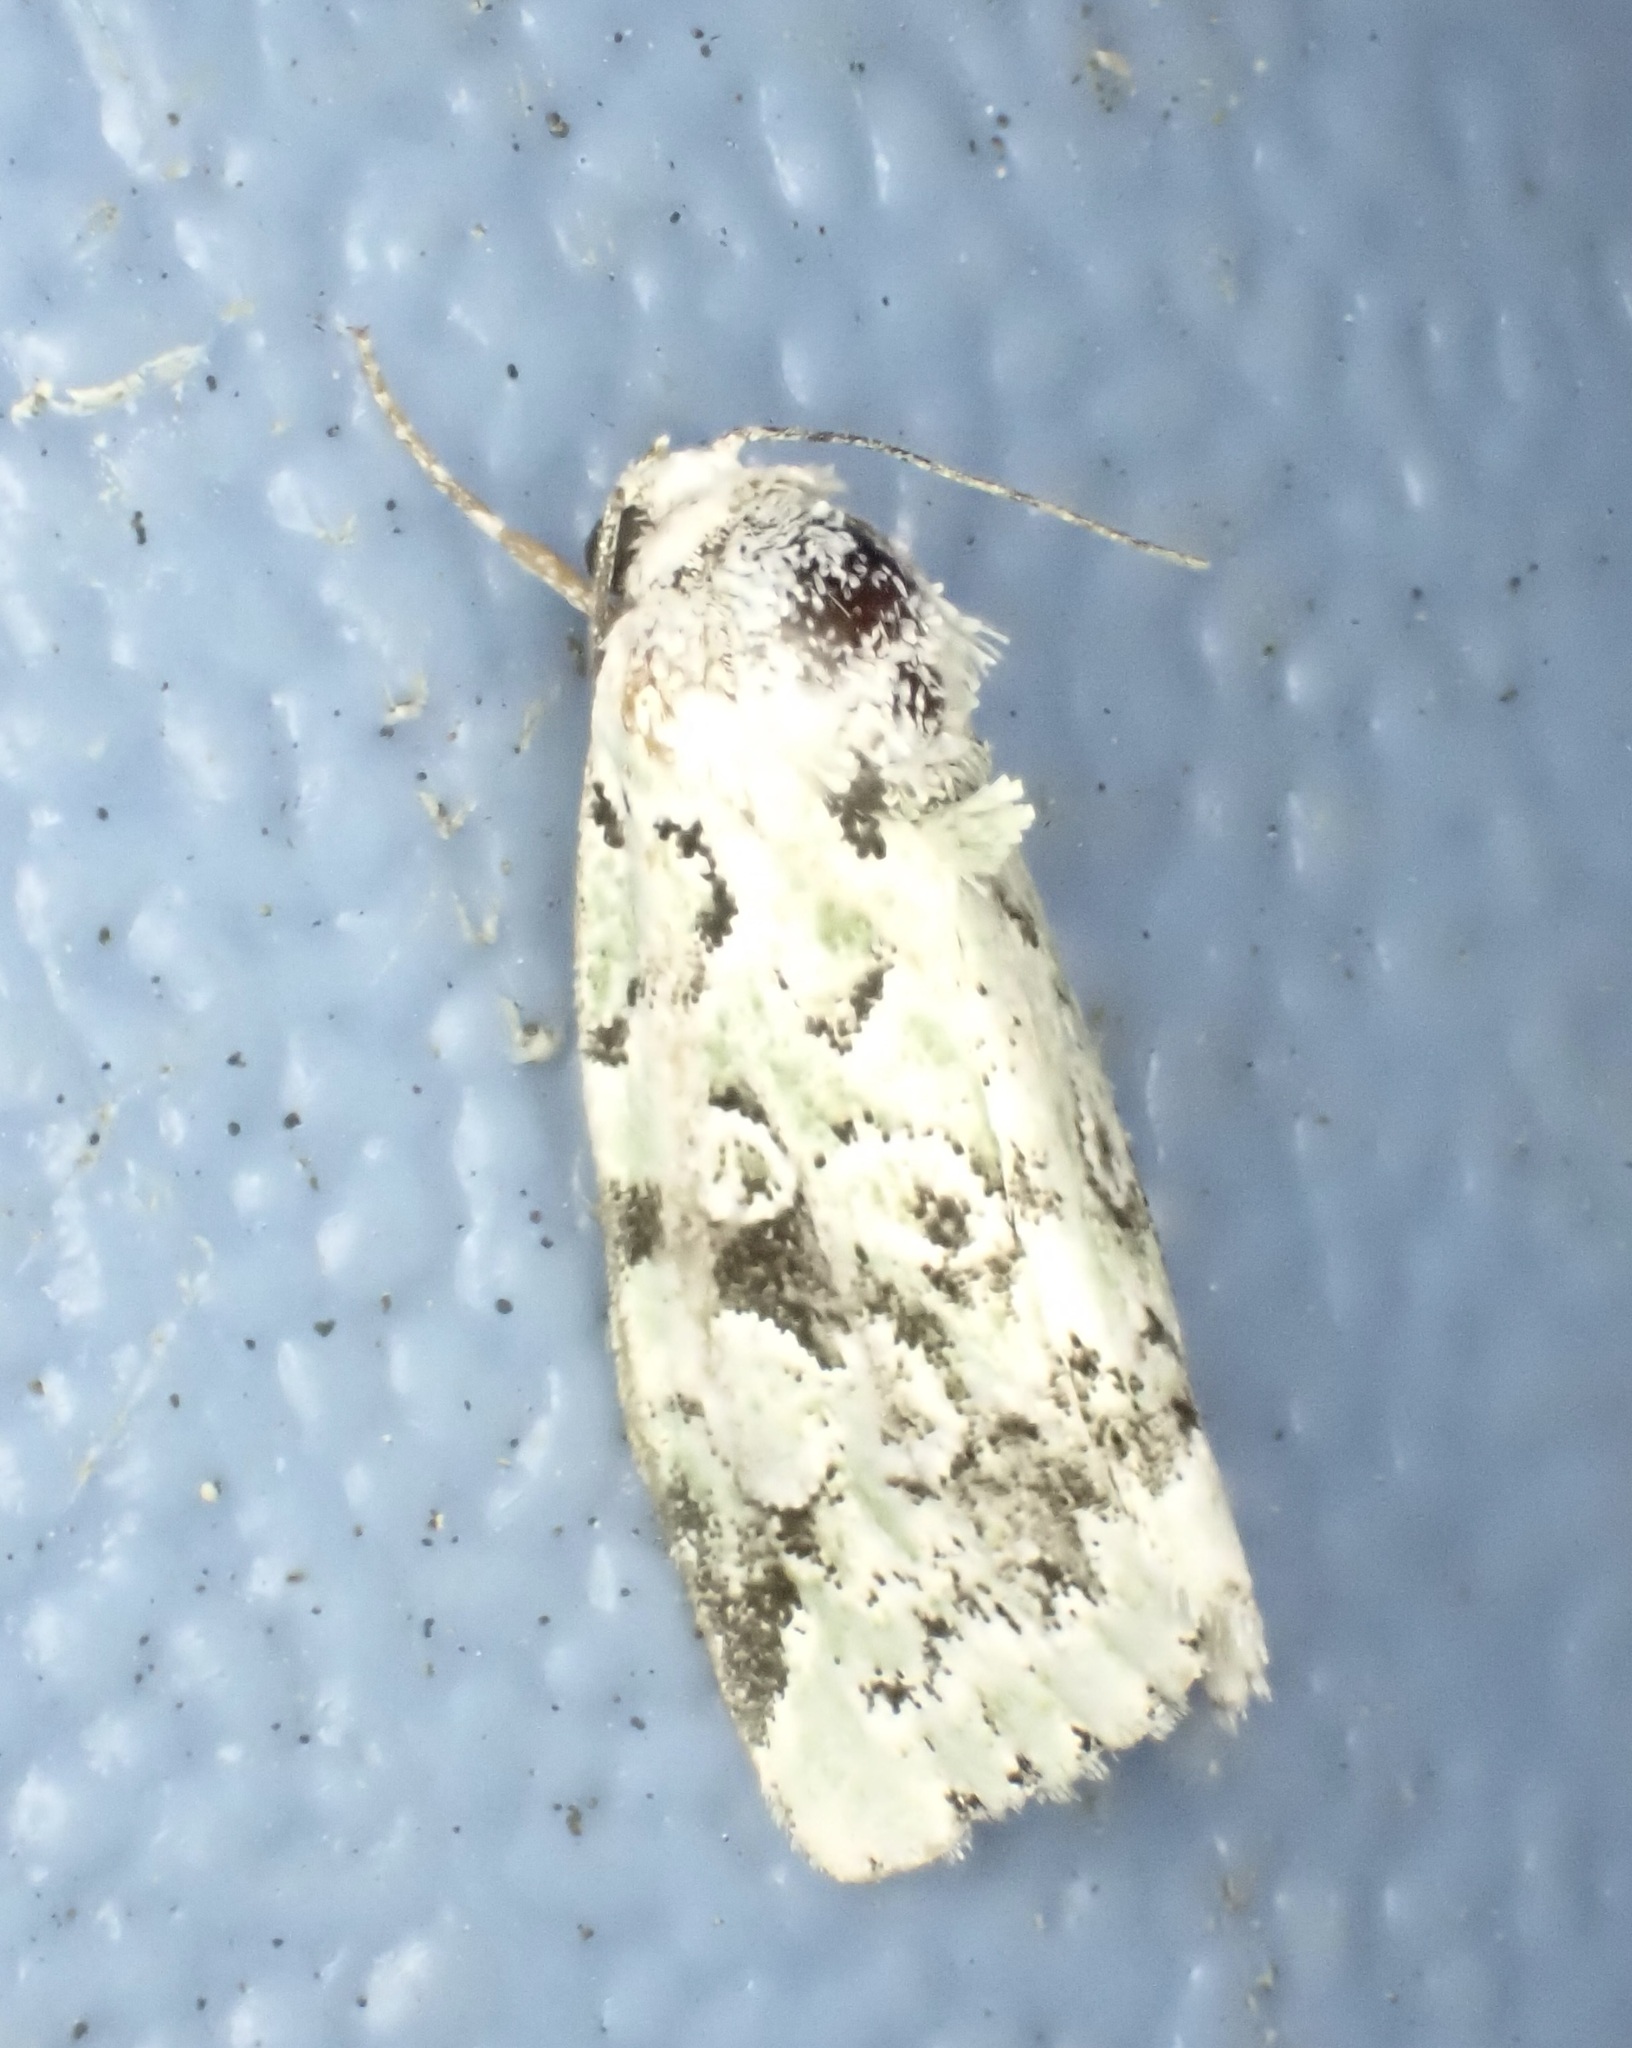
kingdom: Animalia
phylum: Arthropoda
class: Insecta
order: Lepidoptera
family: Noctuidae
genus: Bryolymnia
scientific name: Bryolymnia viridata
